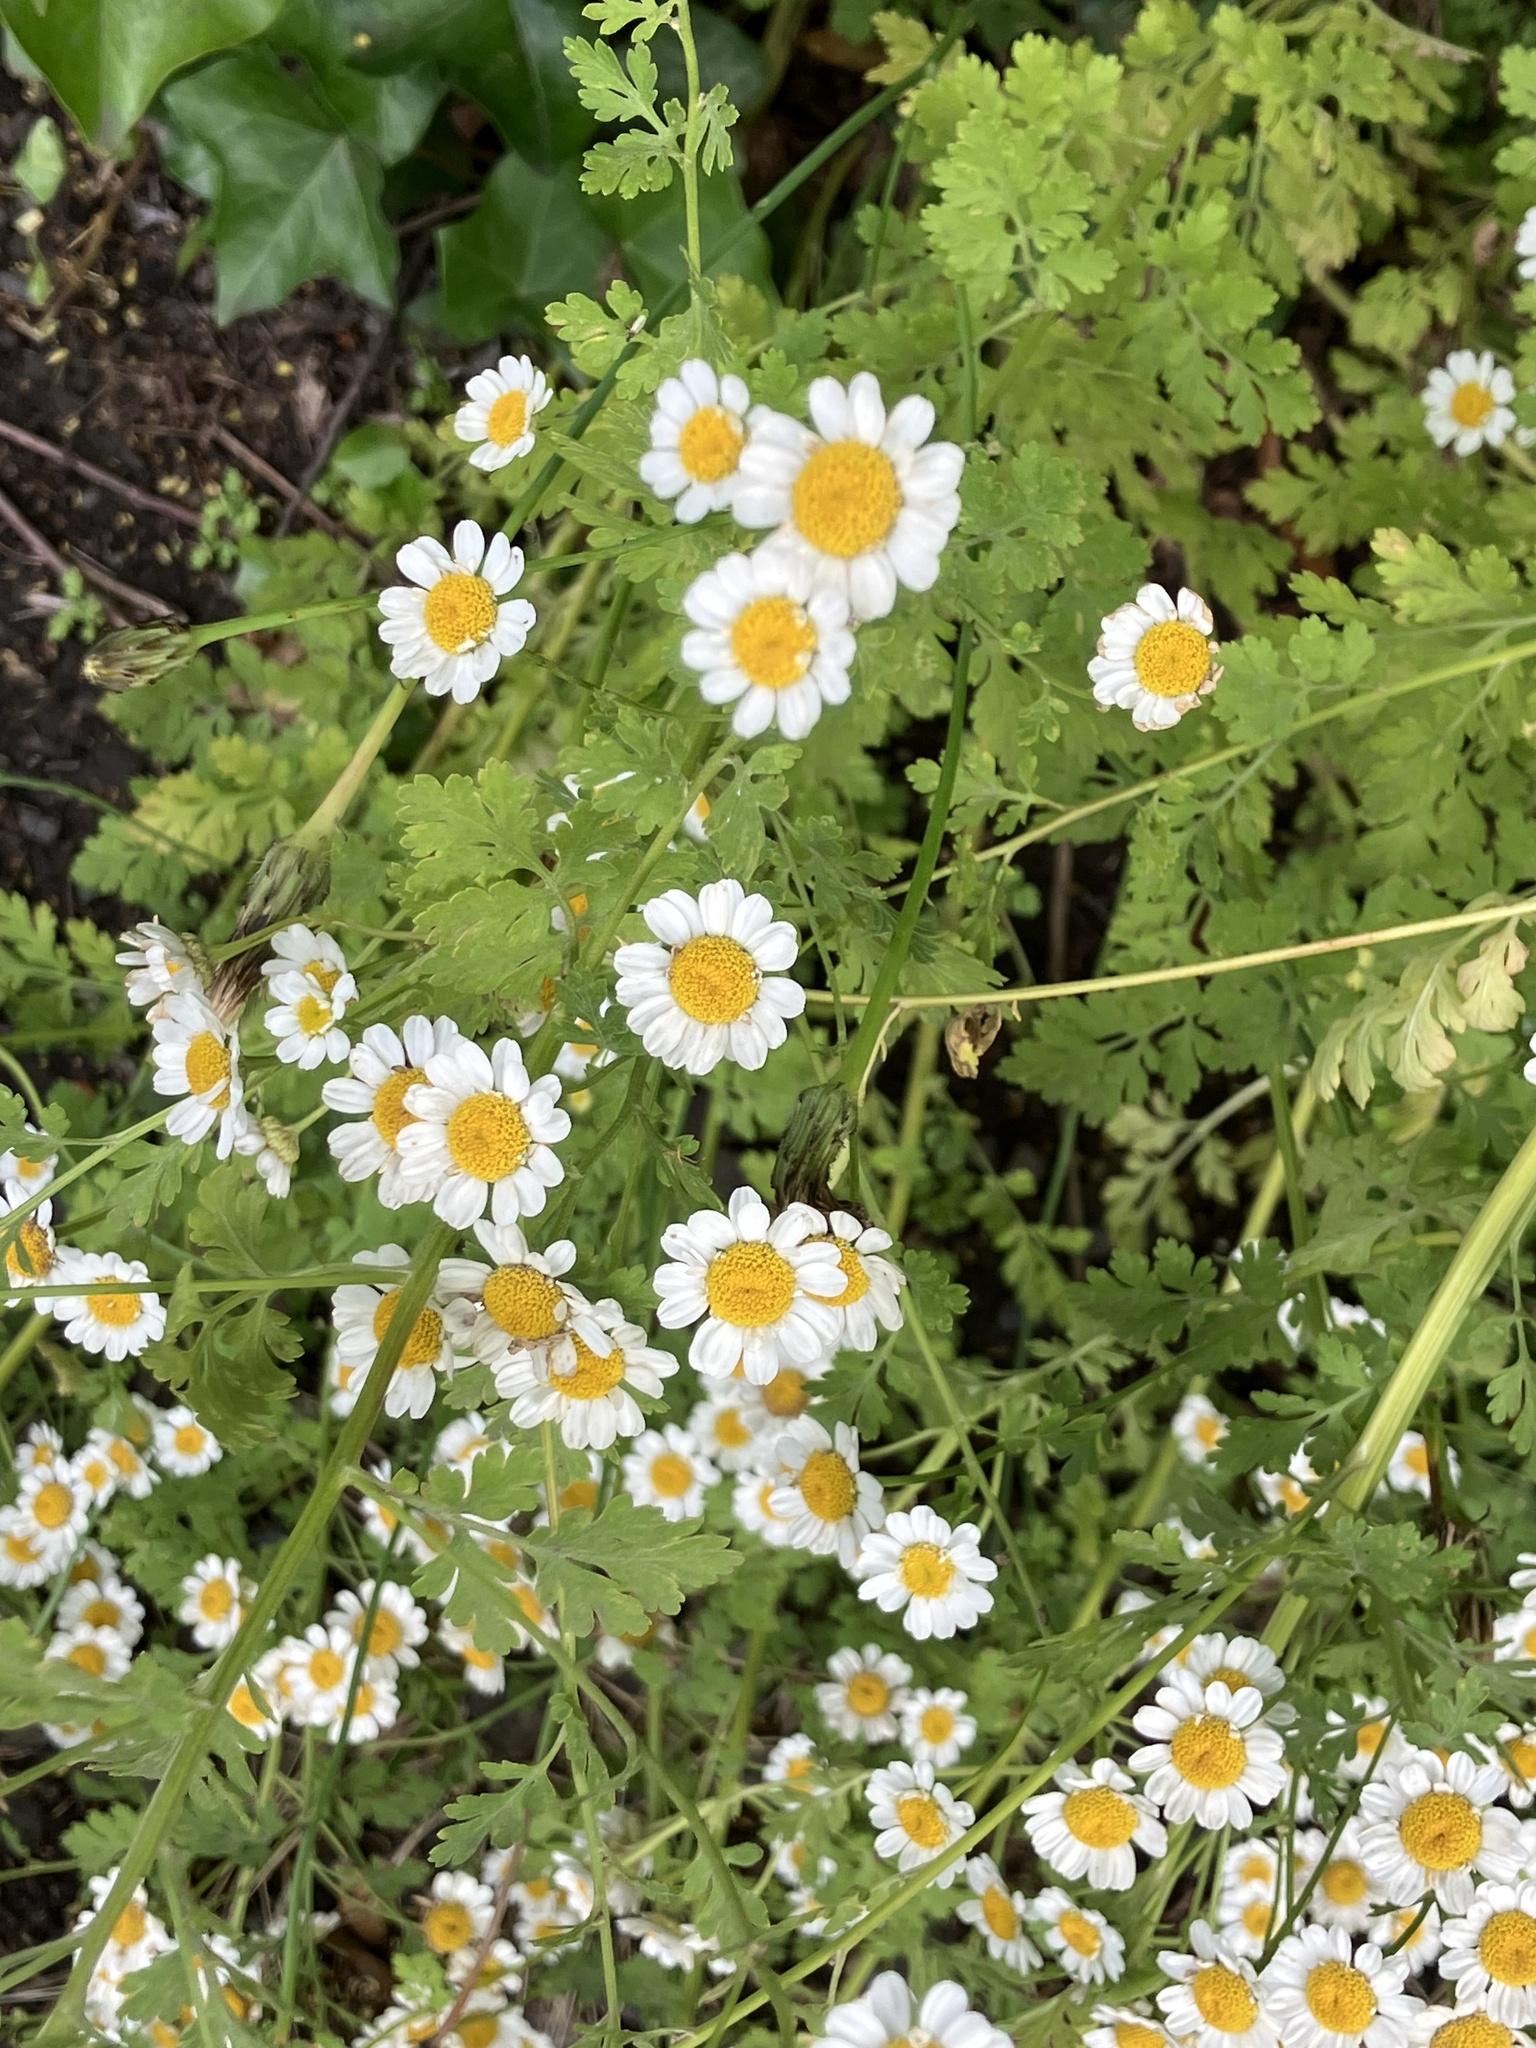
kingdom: Plantae
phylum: Tracheophyta
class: Magnoliopsida
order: Asterales
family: Asteraceae
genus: Tanacetum
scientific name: Tanacetum parthenium
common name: Feverfew
